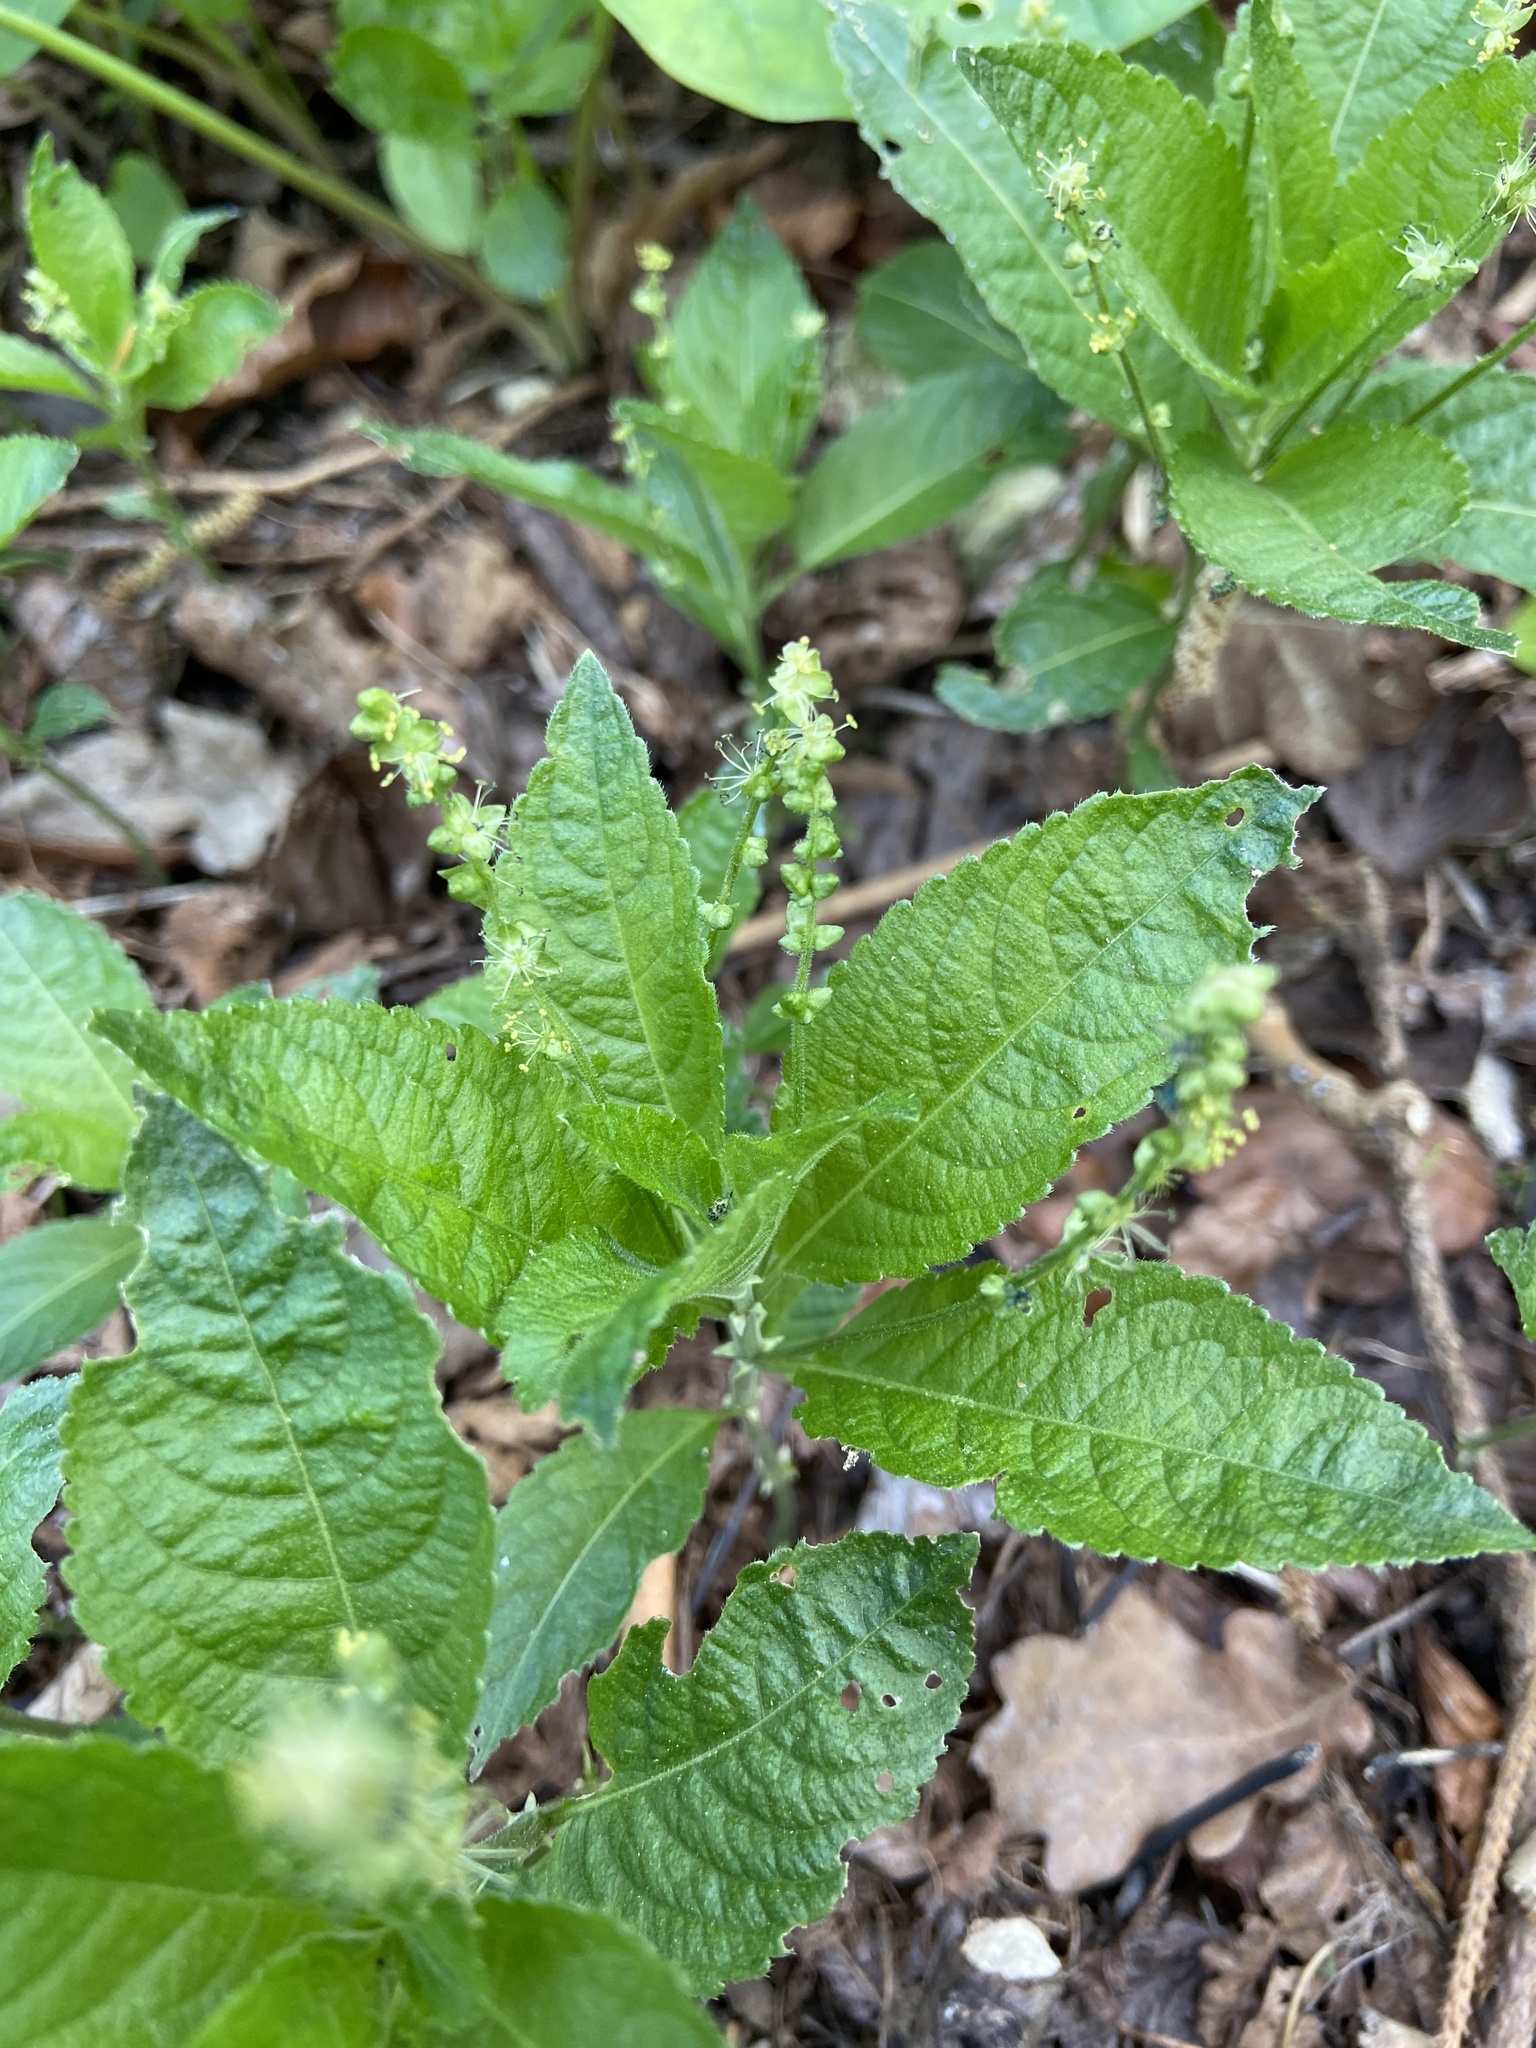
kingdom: Plantae
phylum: Tracheophyta
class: Magnoliopsida
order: Malpighiales
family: Euphorbiaceae
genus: Mercurialis
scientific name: Mercurialis perennis
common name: Dog mercury
